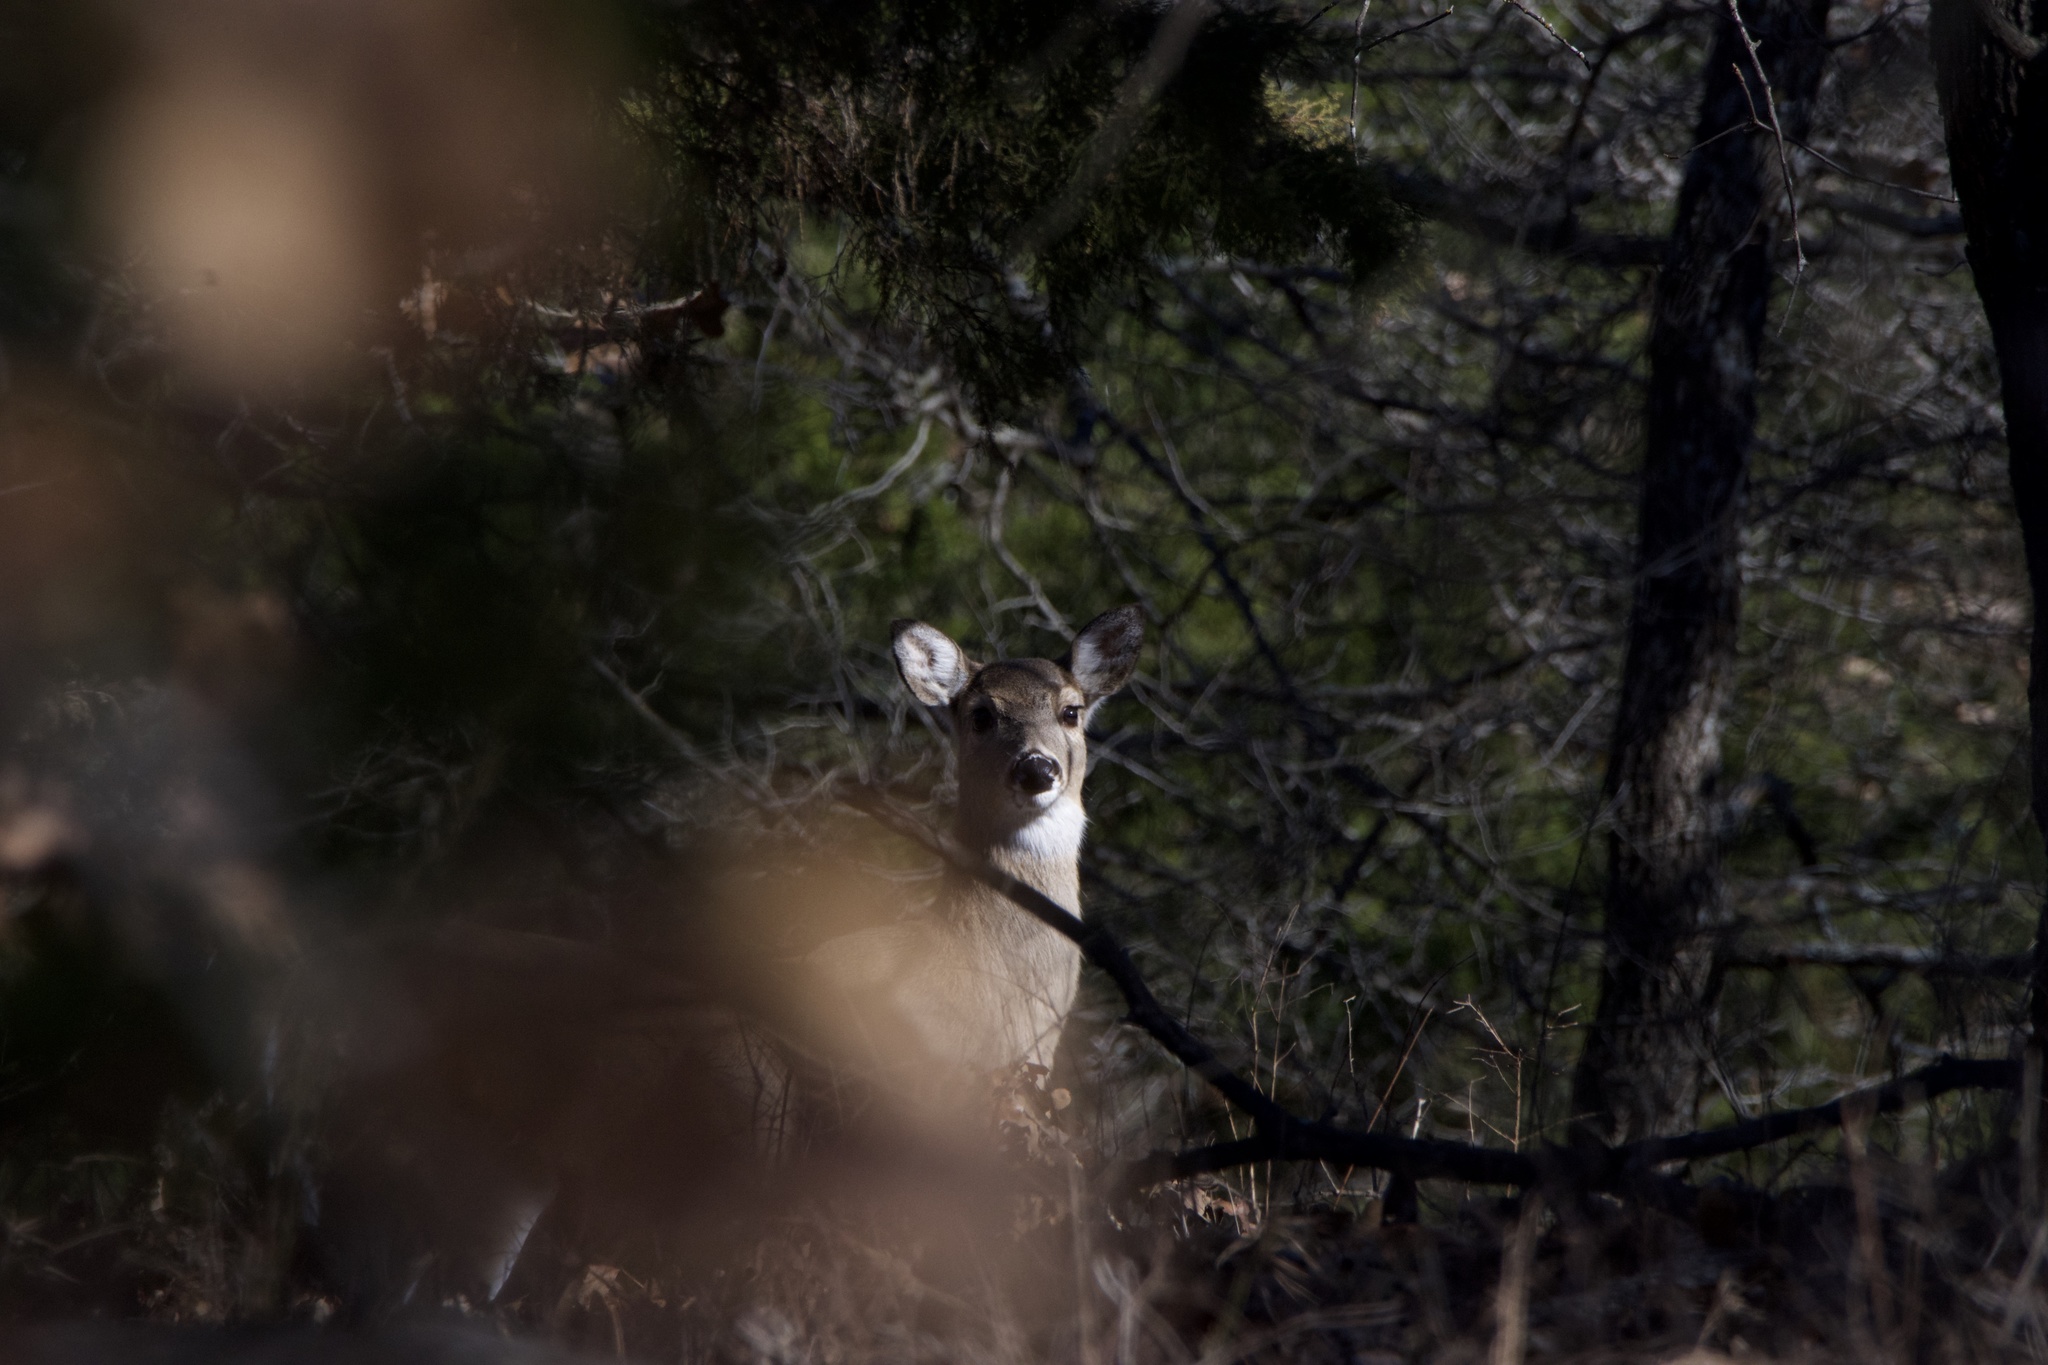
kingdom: Animalia
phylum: Chordata
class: Mammalia
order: Artiodactyla
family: Cervidae
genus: Odocoileus
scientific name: Odocoileus virginianus
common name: White-tailed deer
